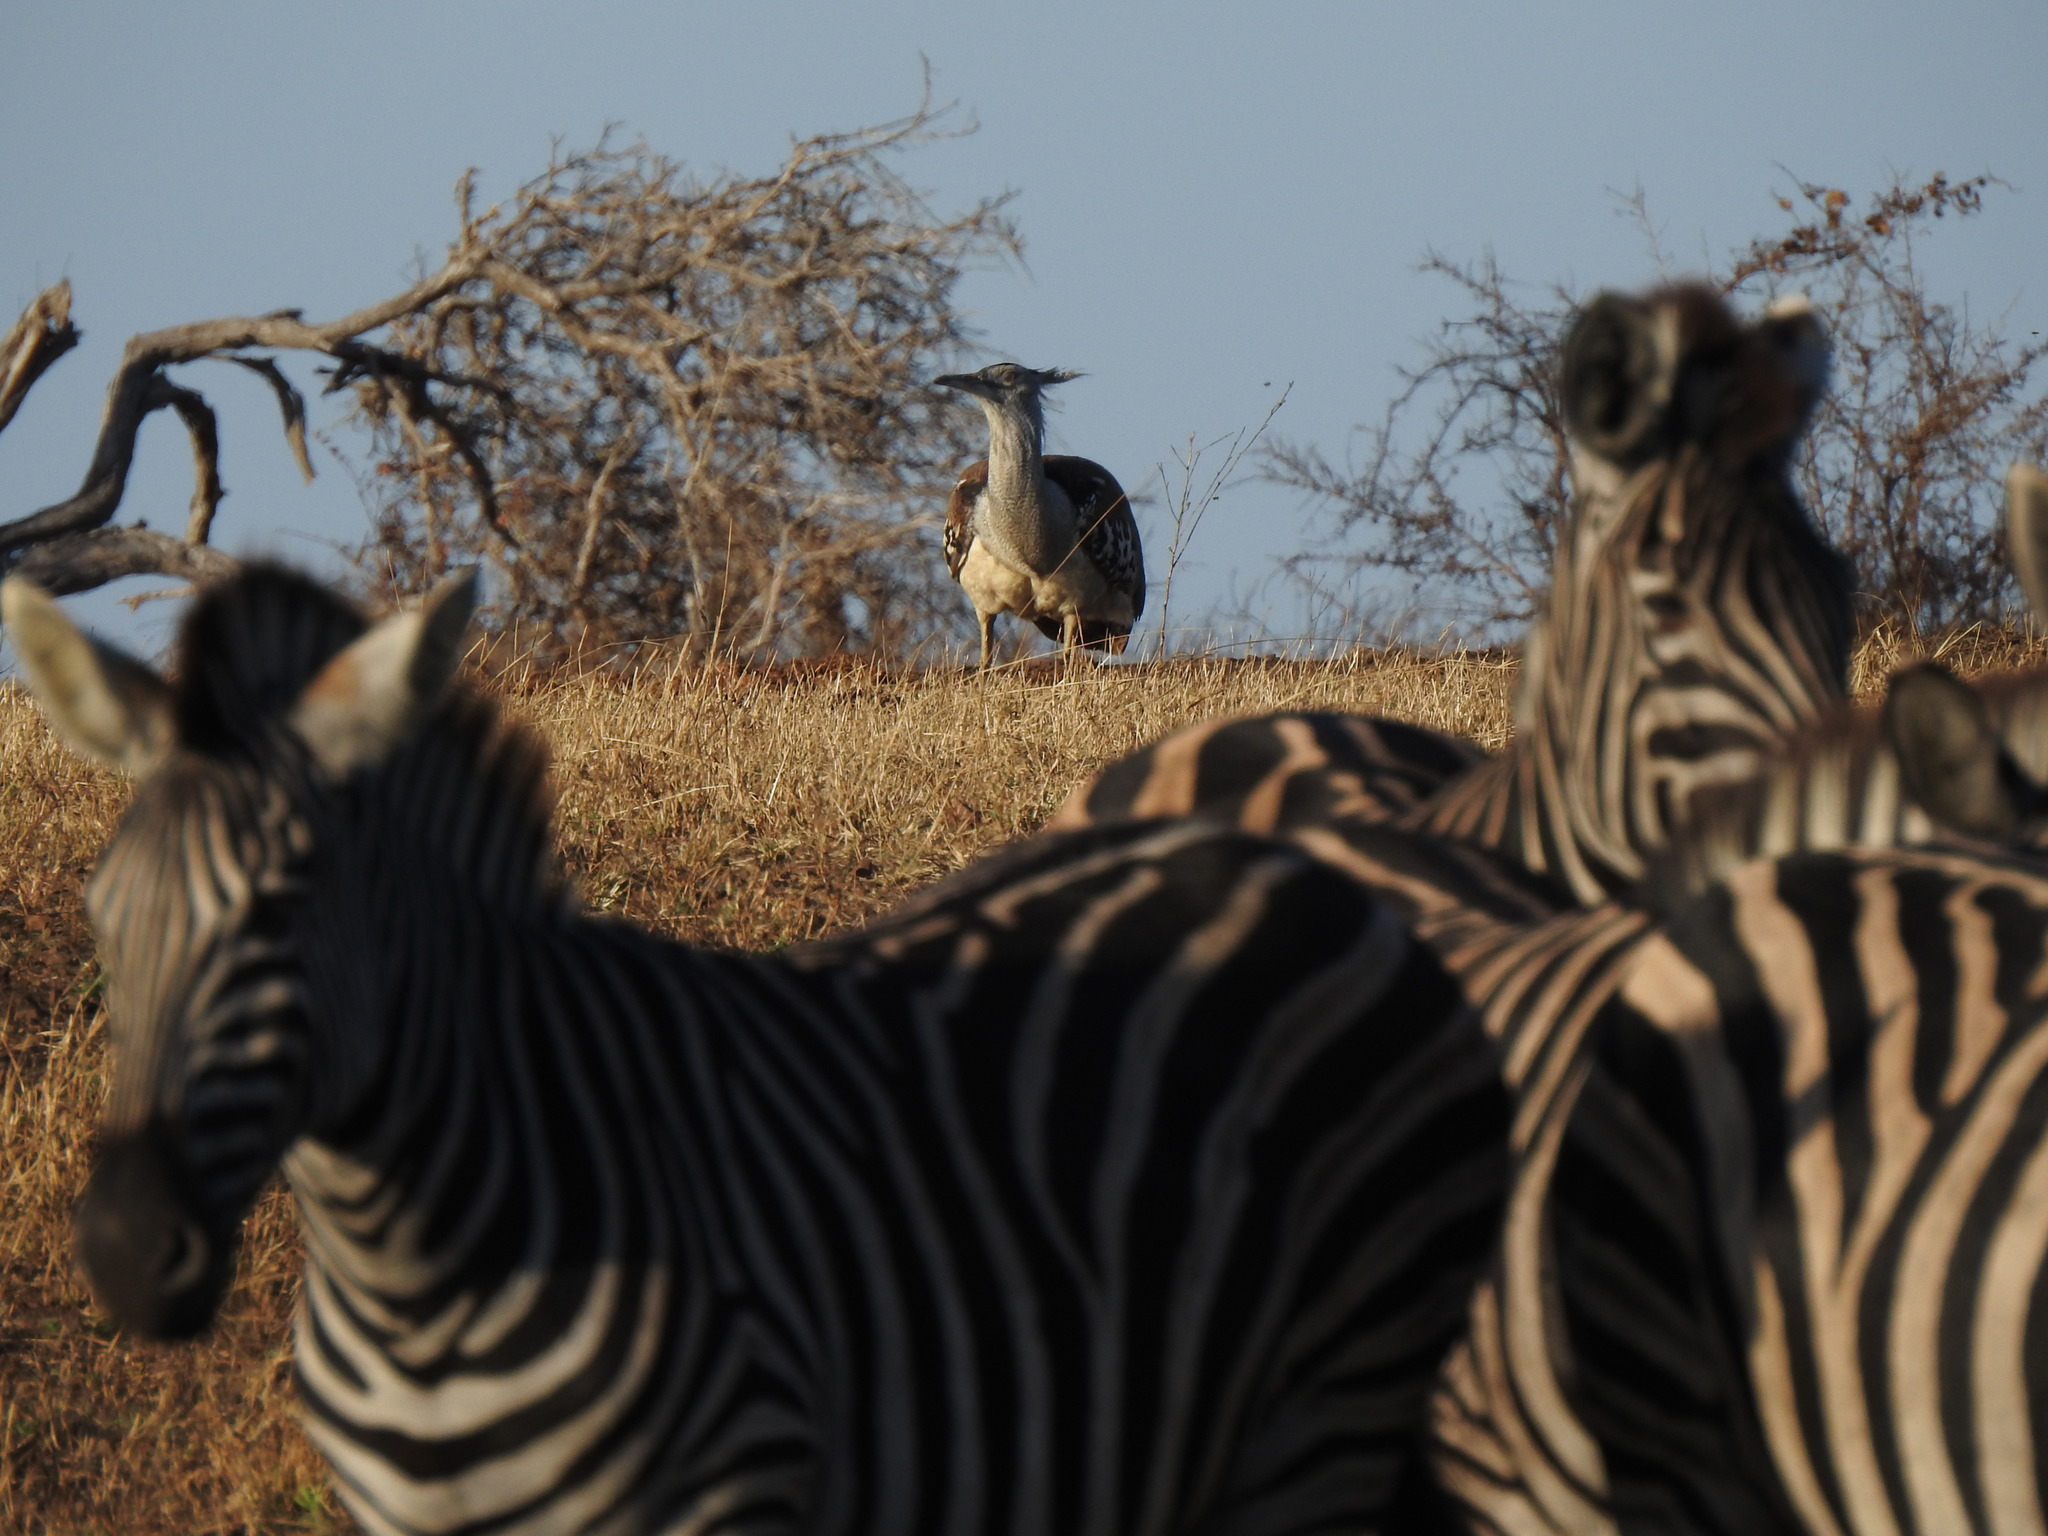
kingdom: Animalia
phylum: Chordata
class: Aves
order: Otidiformes
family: Otididae
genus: Ardeotis
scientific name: Ardeotis kori
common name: Kori bustard
